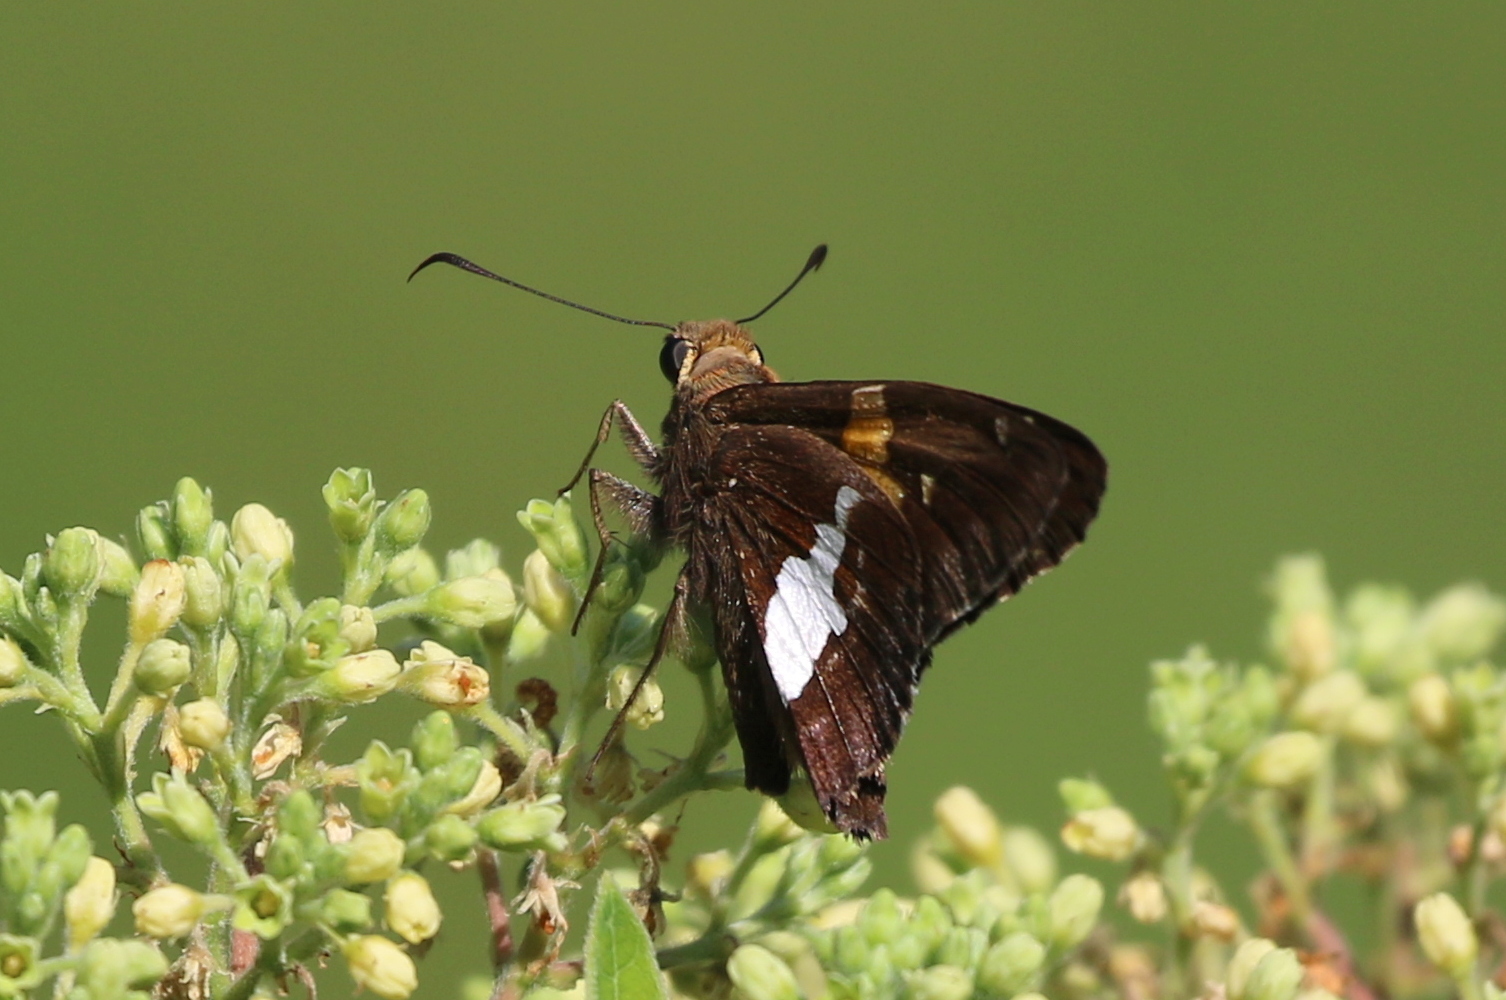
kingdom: Animalia
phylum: Arthropoda
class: Insecta
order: Lepidoptera
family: Hesperiidae
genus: Epargyreus
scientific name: Epargyreus clarus
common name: Silver-spotted skipper
